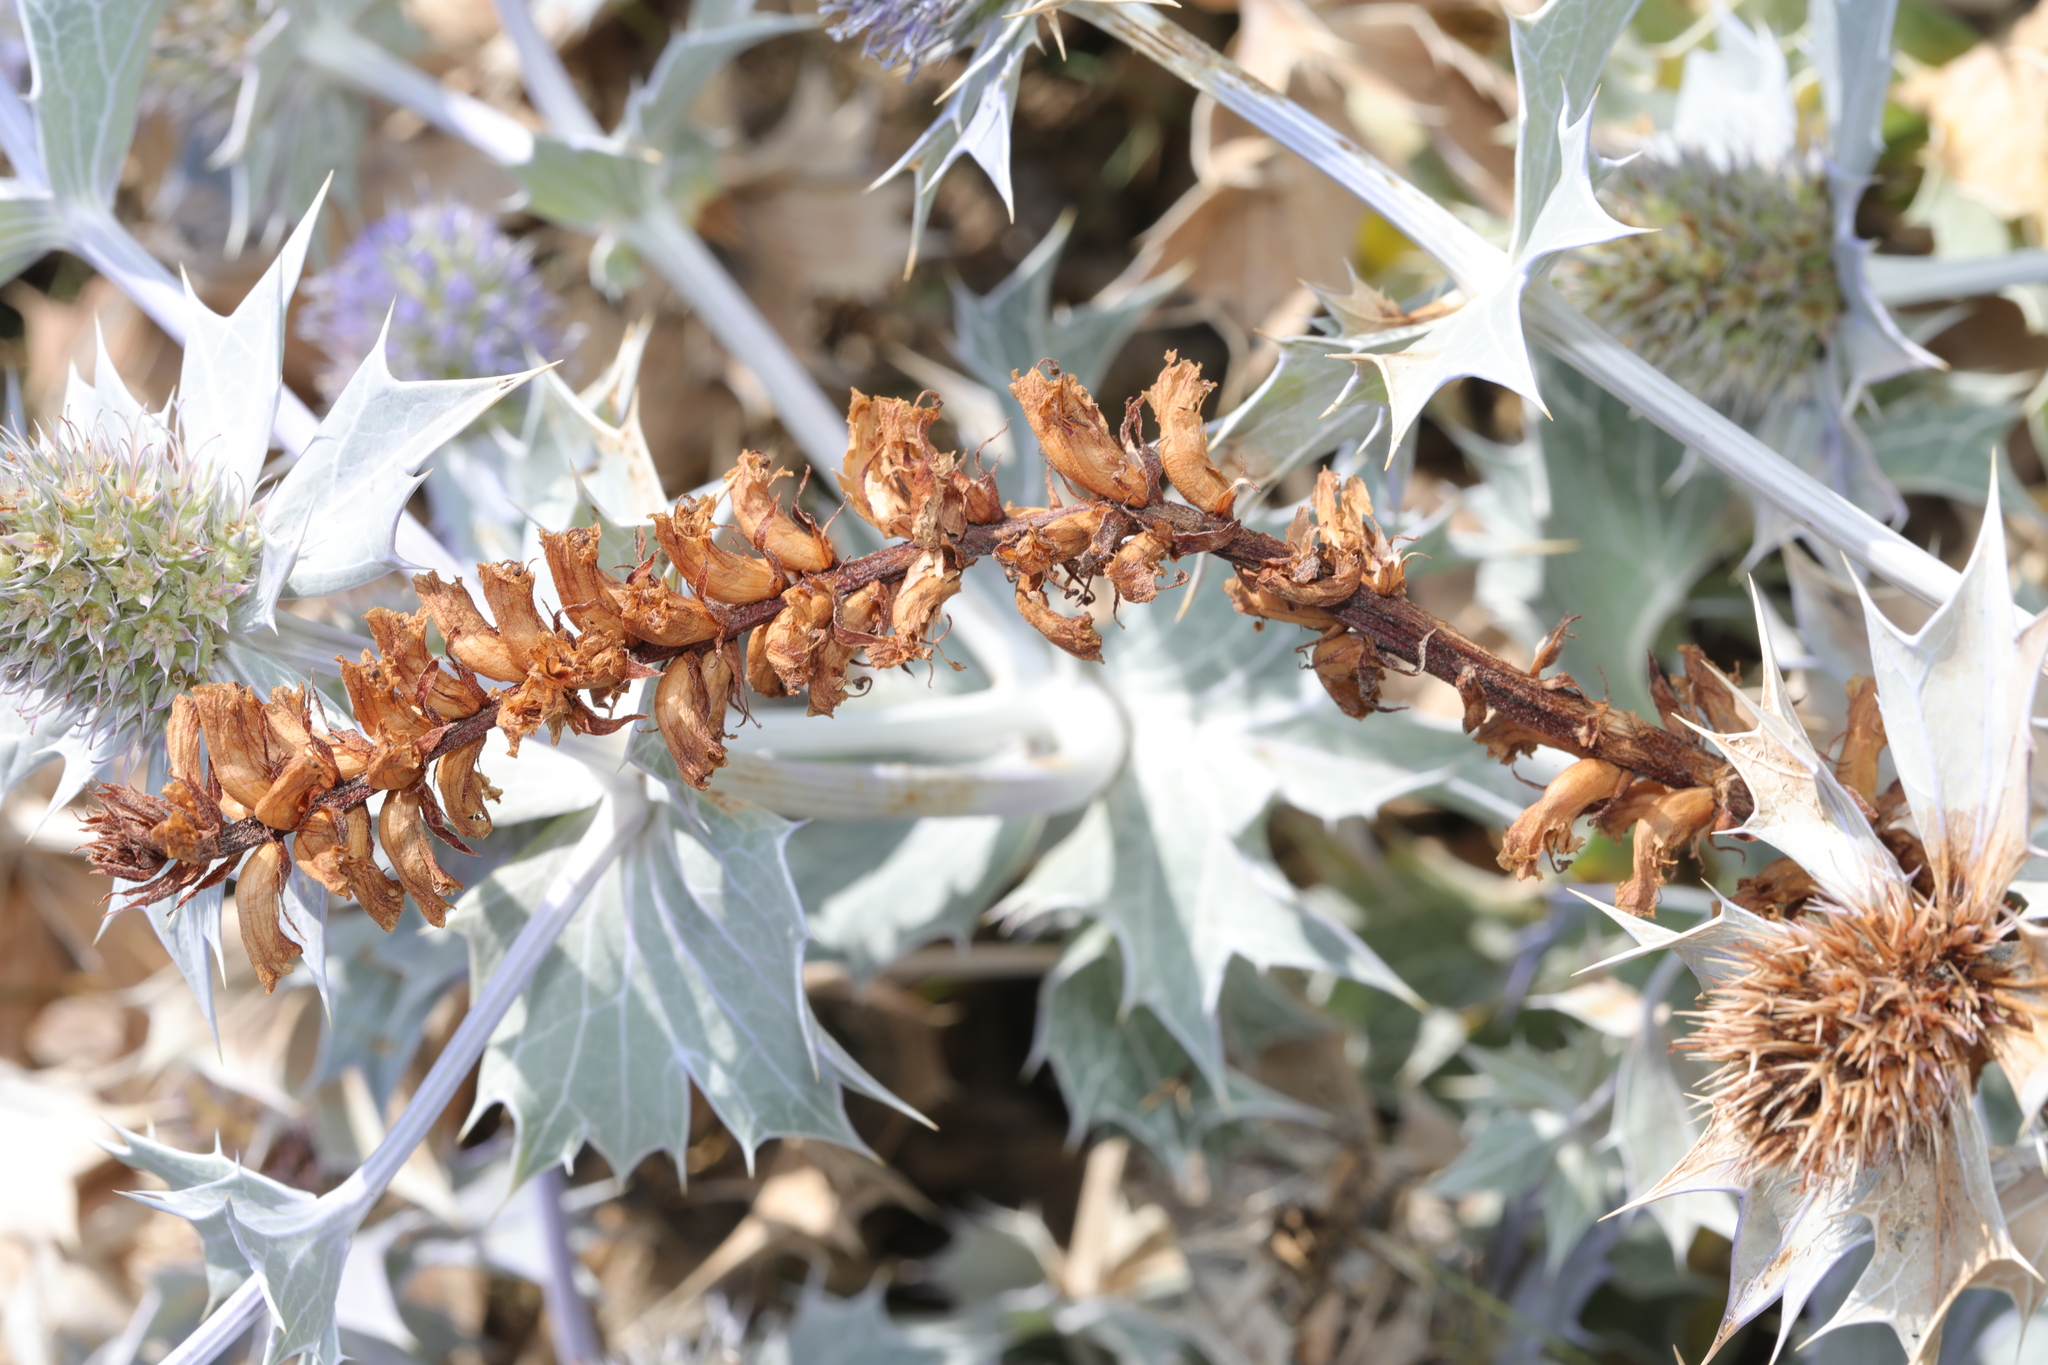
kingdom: Plantae
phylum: Tracheophyta
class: Magnoliopsida
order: Lamiales
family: Orobanchaceae
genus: Orobanche
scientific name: Orobanche minor
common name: Common broomrape
